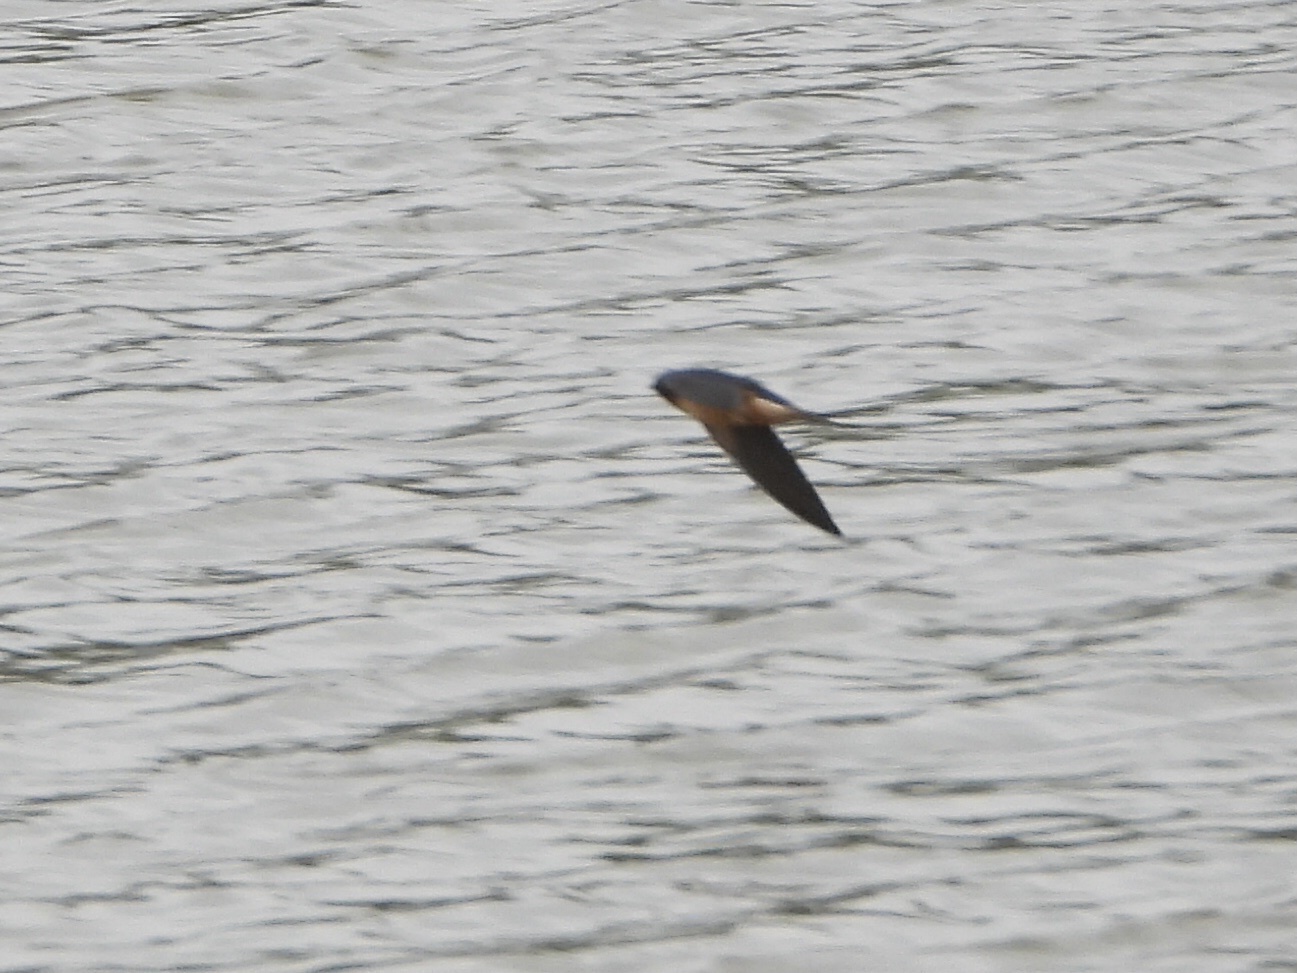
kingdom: Animalia
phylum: Chordata
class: Aves
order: Passeriformes
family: Hirundinidae
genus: Hirundo
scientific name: Hirundo rustica
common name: Barn swallow
